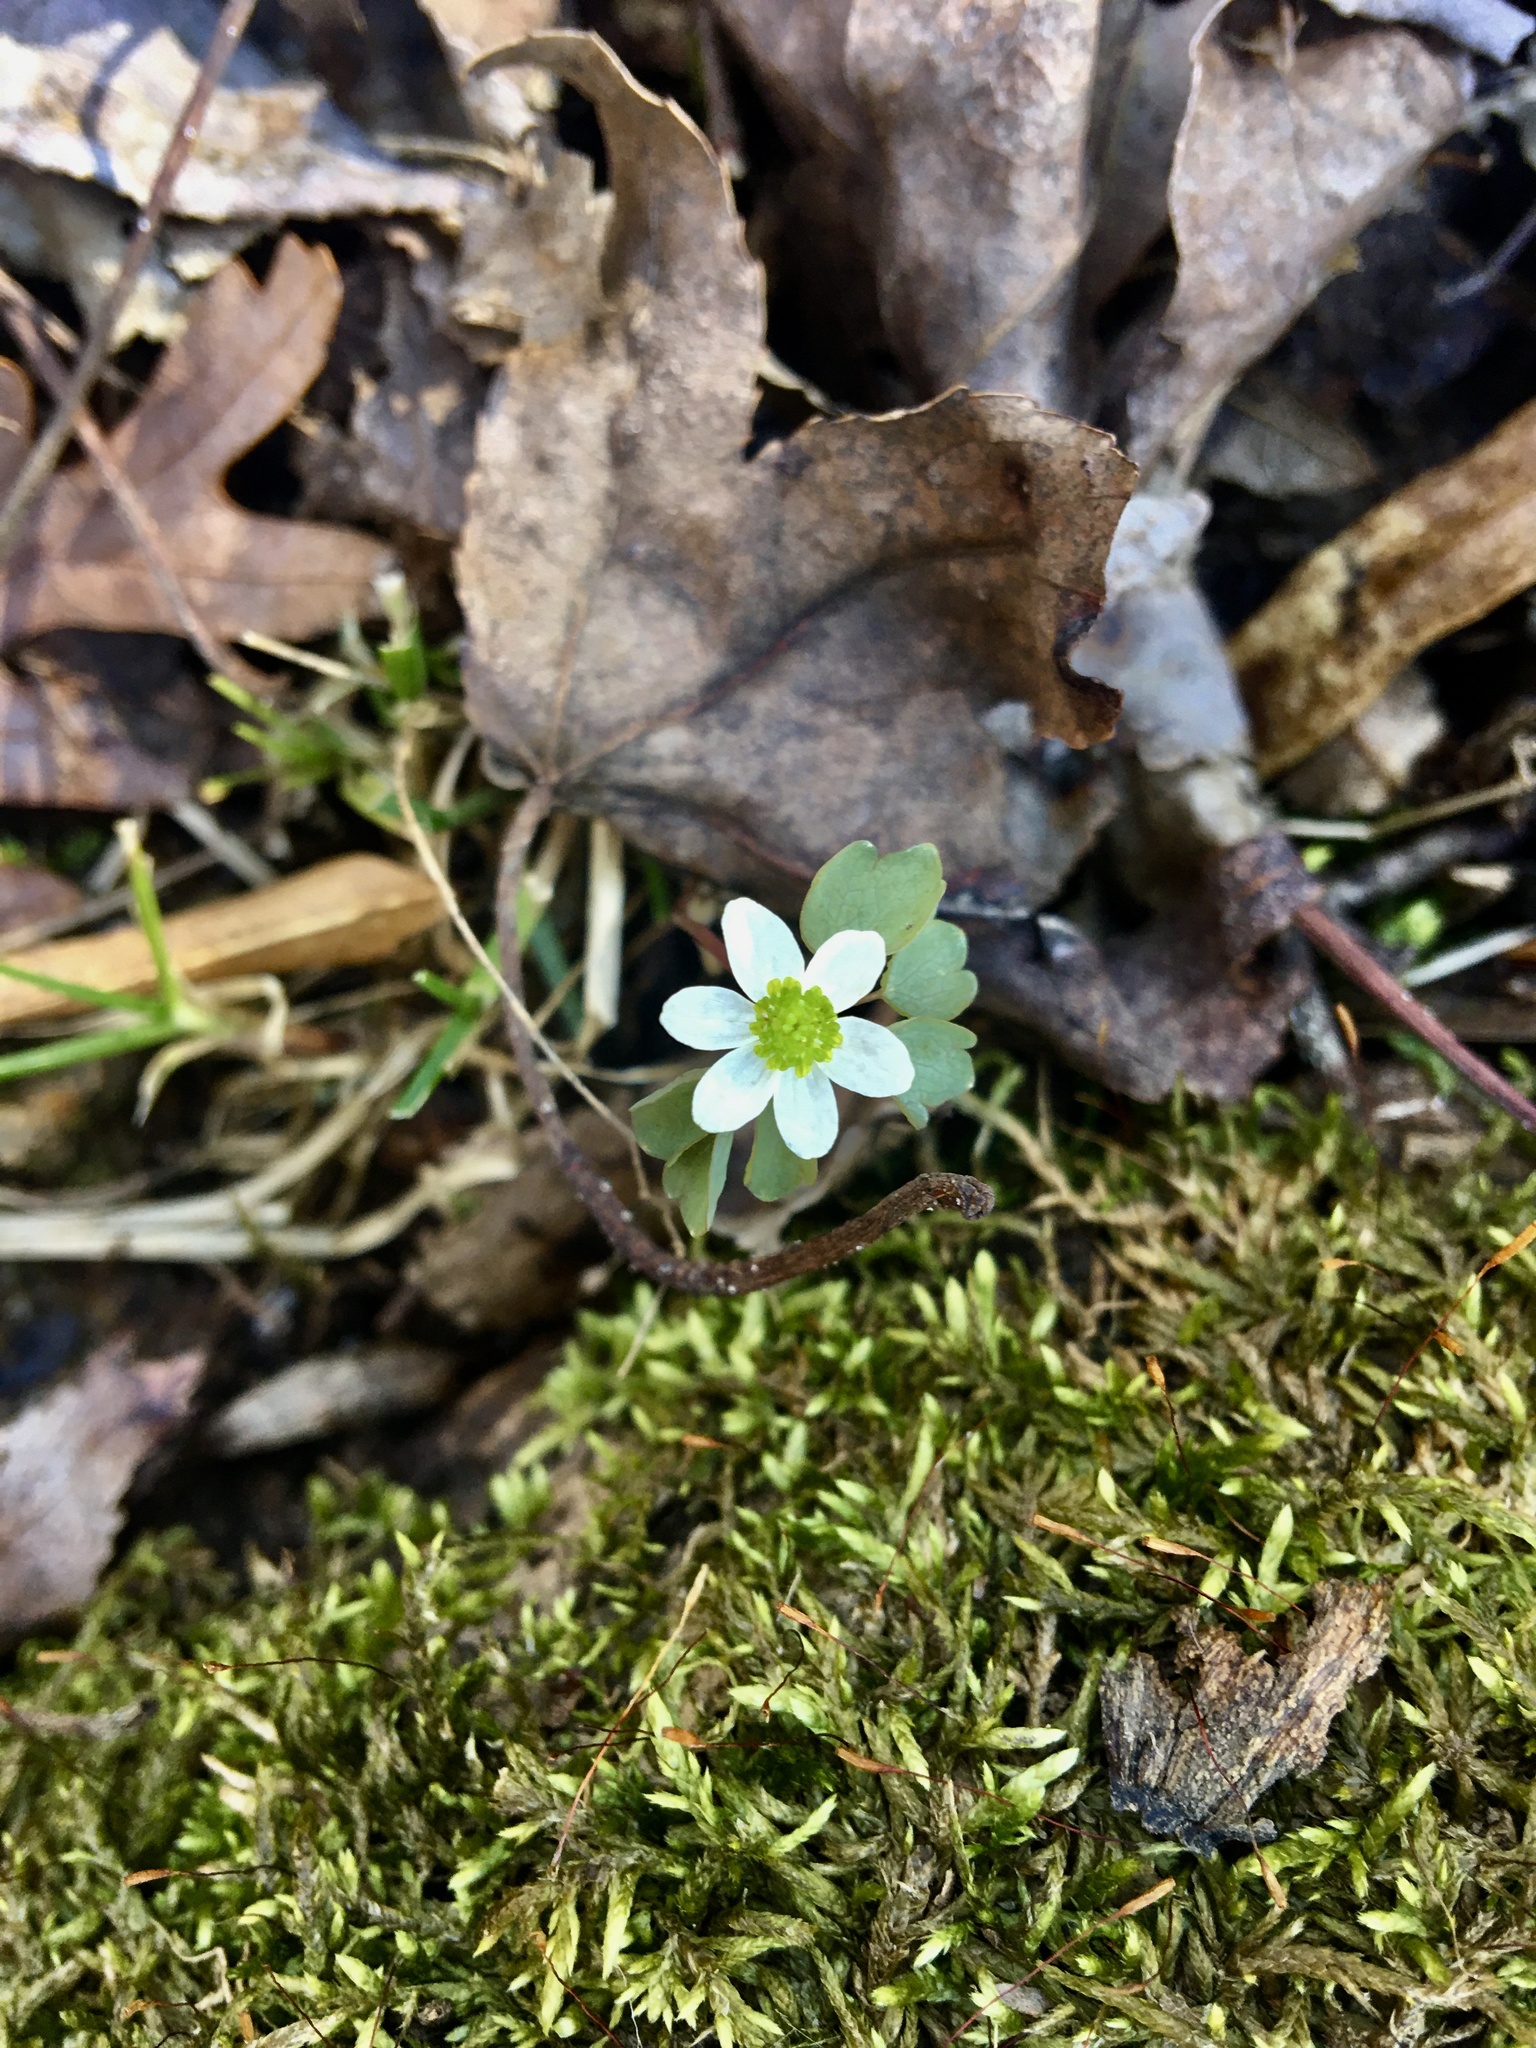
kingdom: Plantae
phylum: Tracheophyta
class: Magnoliopsida
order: Ranunculales
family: Ranunculaceae
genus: Thalictrum
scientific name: Thalictrum thalictroides
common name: Rue-anemone
